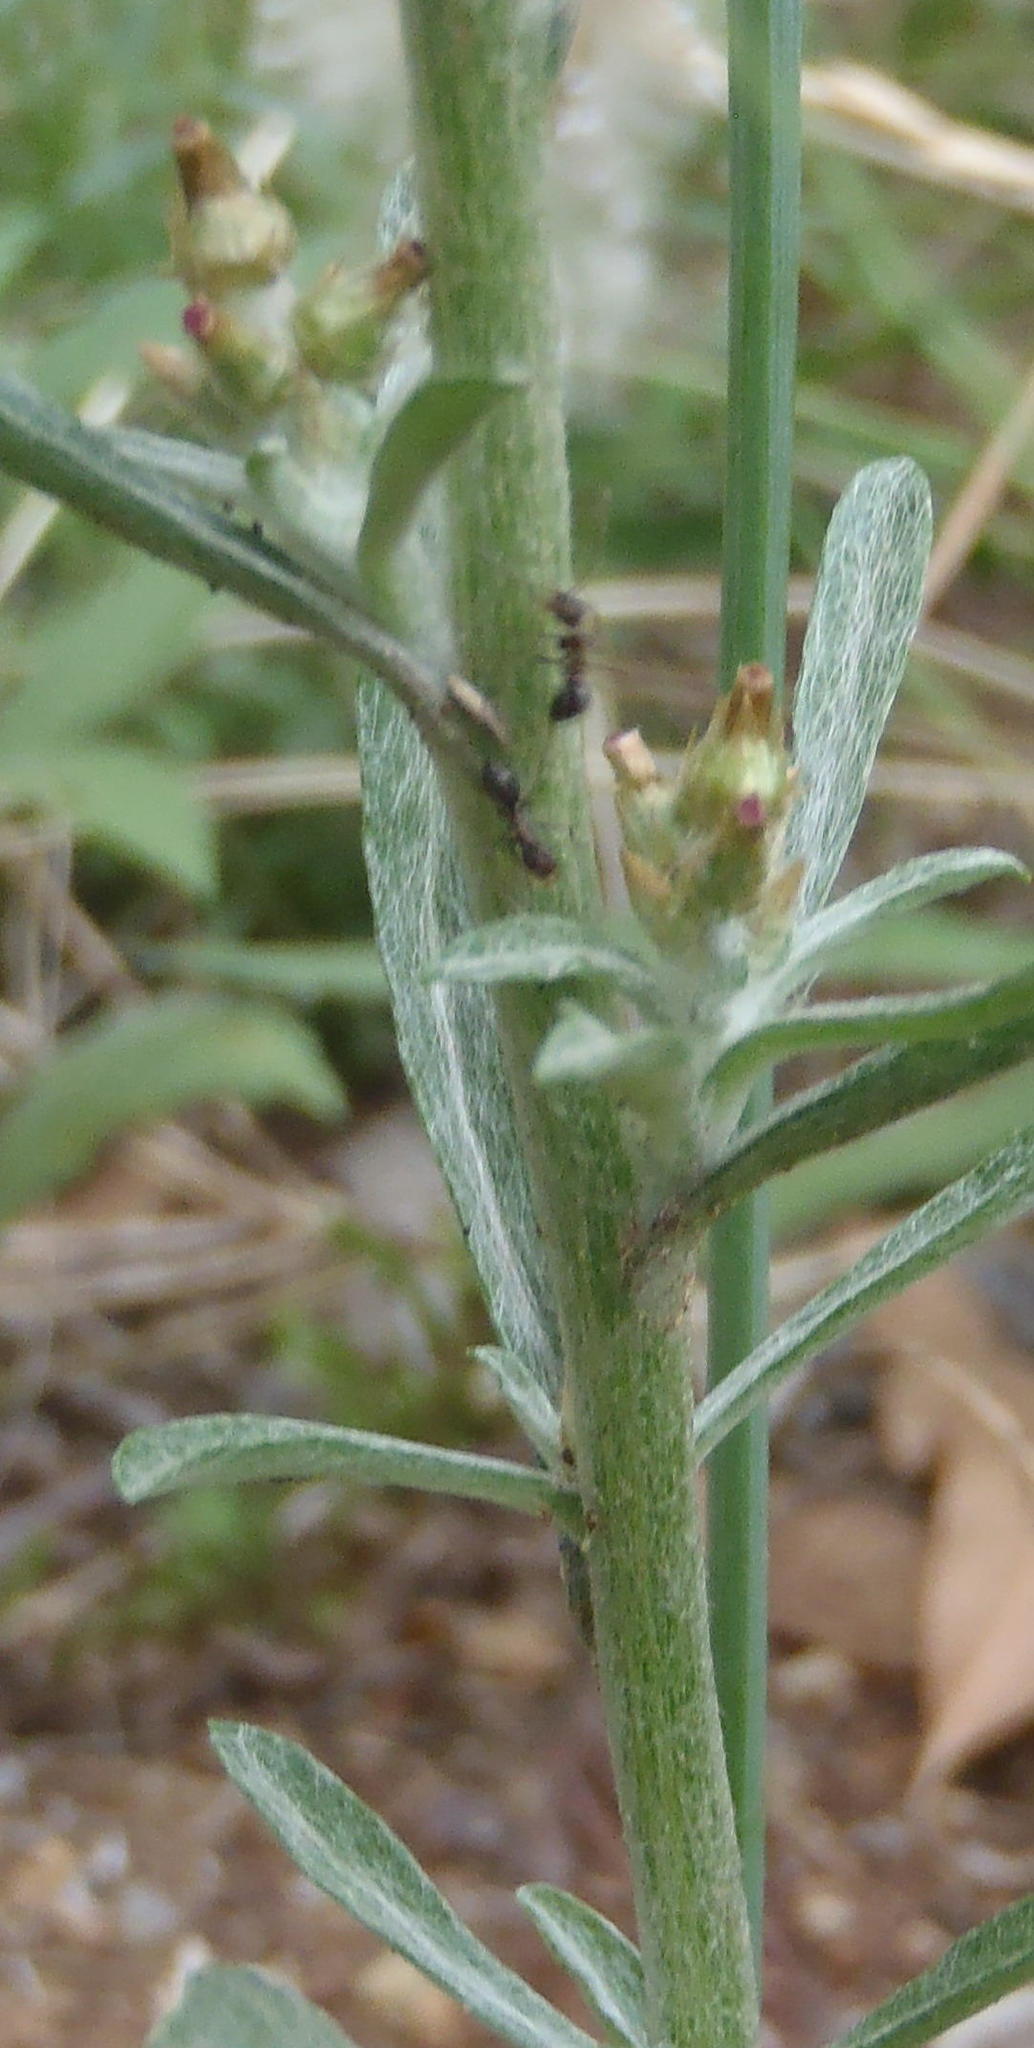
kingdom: Animalia
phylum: Arthropoda
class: Insecta
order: Hymenoptera
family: Formicidae
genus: Anoplolepis
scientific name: Anoplolepis steingroeveri
